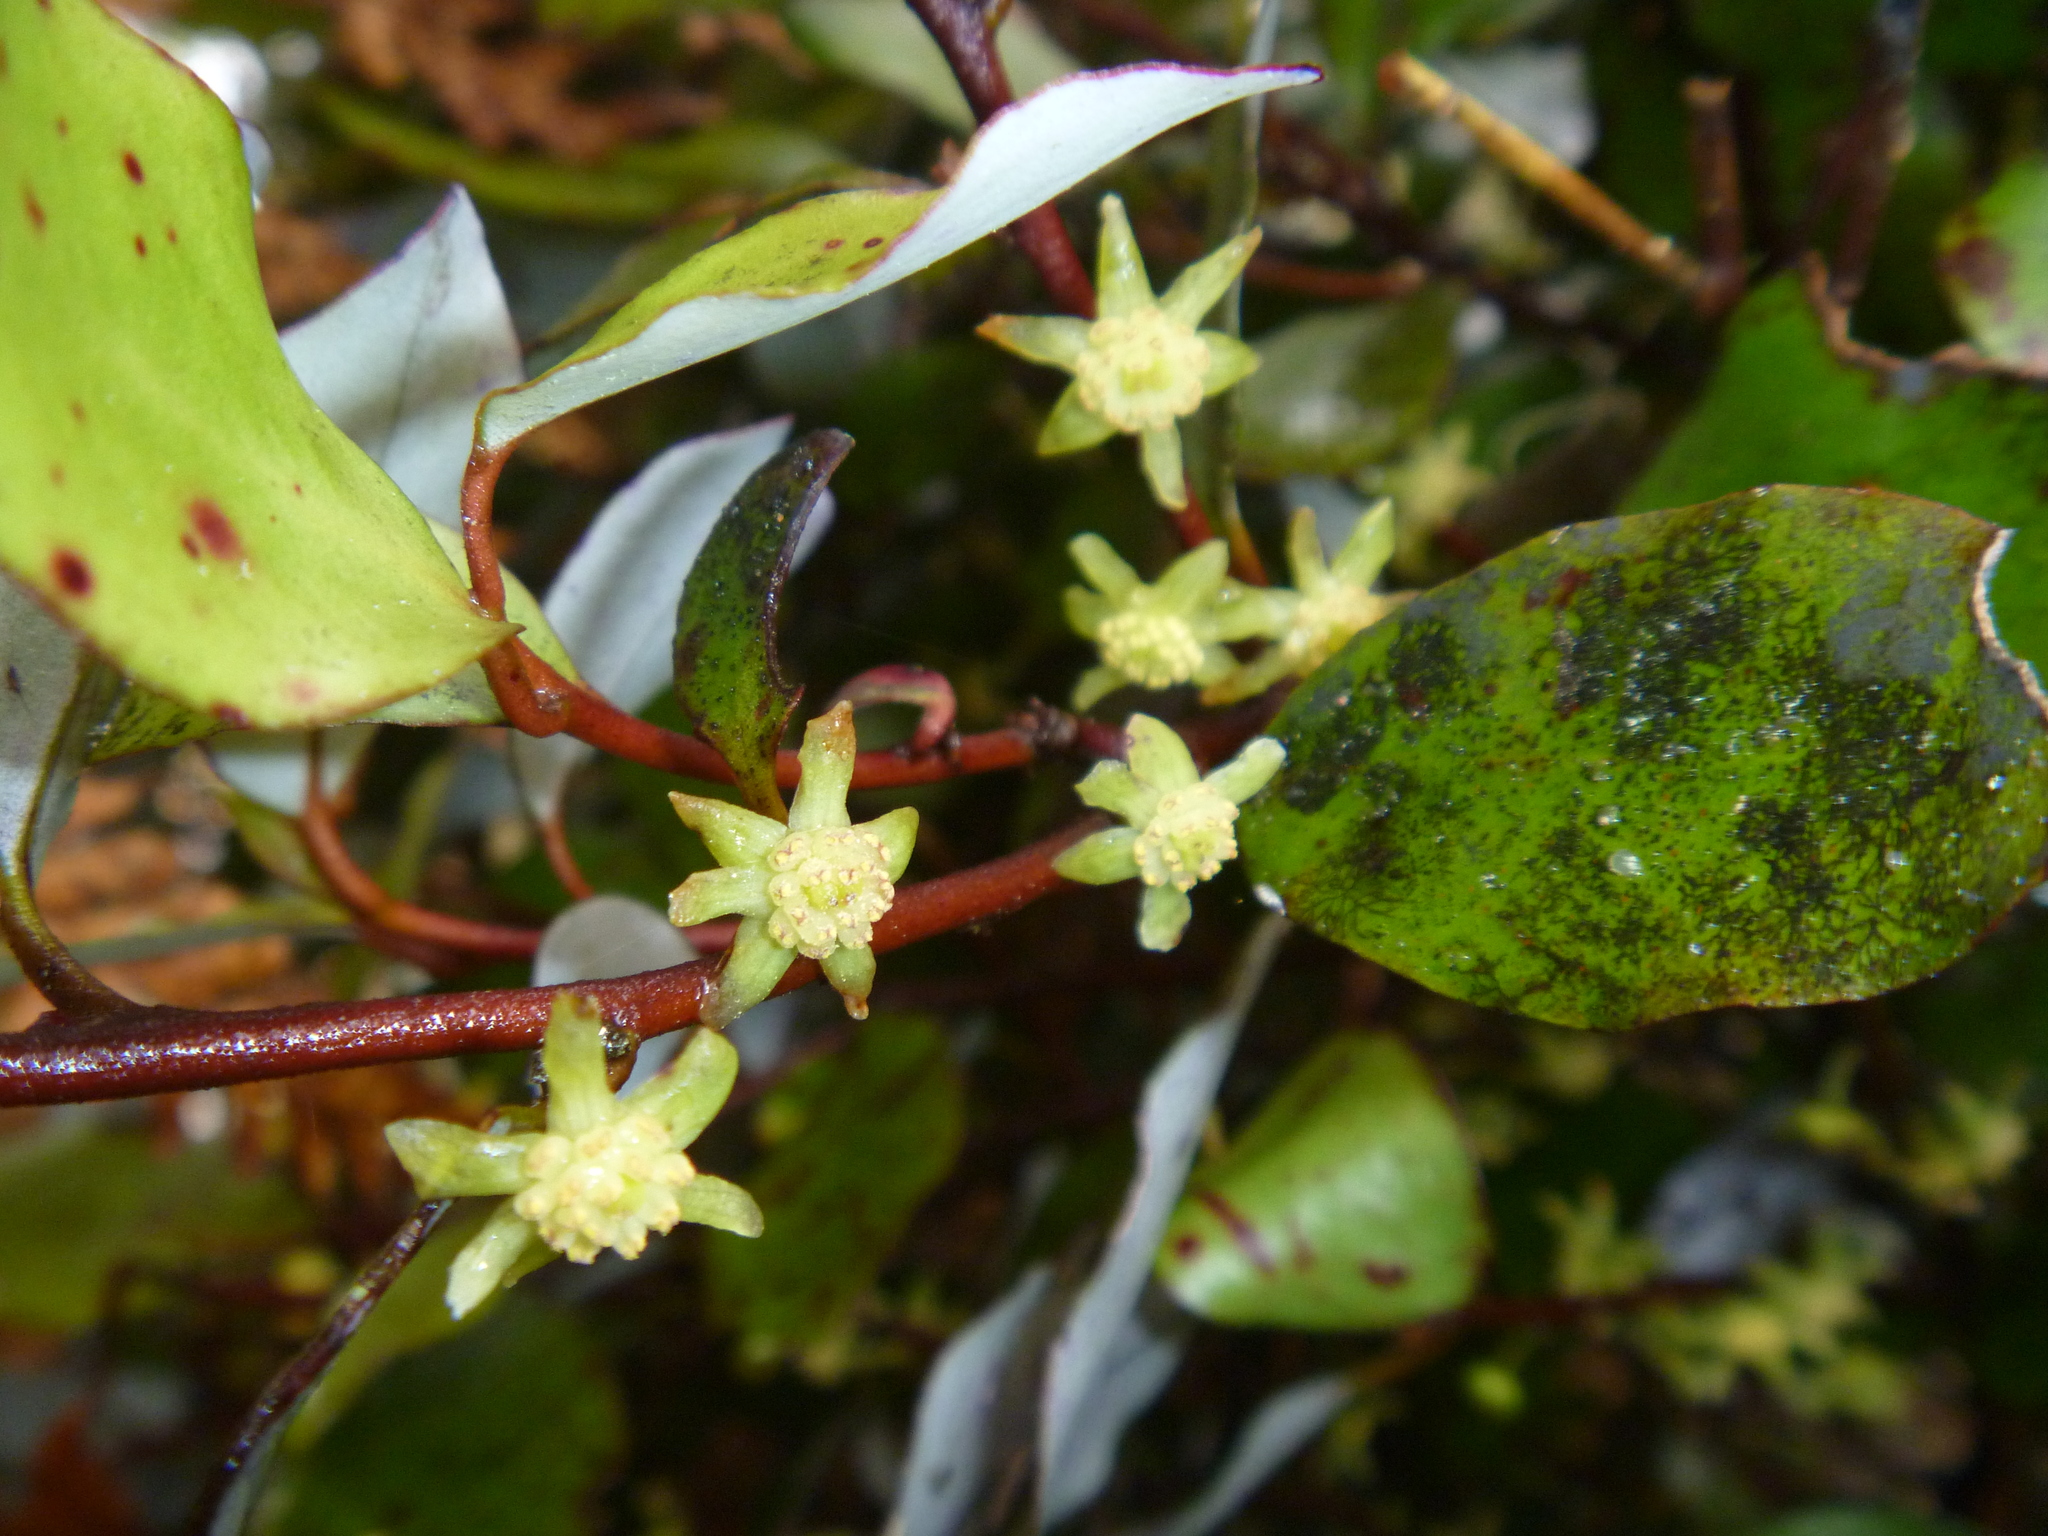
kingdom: Plantae
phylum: Tracheophyta
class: Magnoliopsida
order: Canellales
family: Winteraceae
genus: Pseudowintera
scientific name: Pseudowintera colorata
